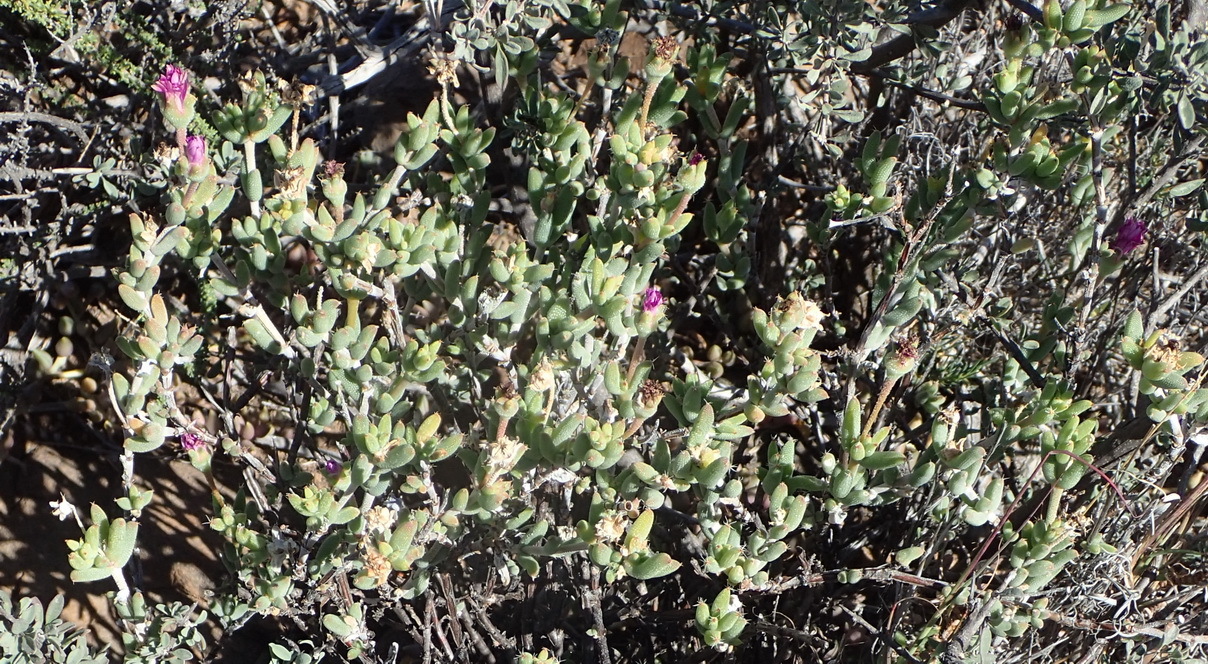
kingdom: Plantae
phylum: Tracheophyta
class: Magnoliopsida
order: Caryophyllales
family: Aizoaceae
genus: Trichodiadema
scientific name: Trichodiadema setuliferum
